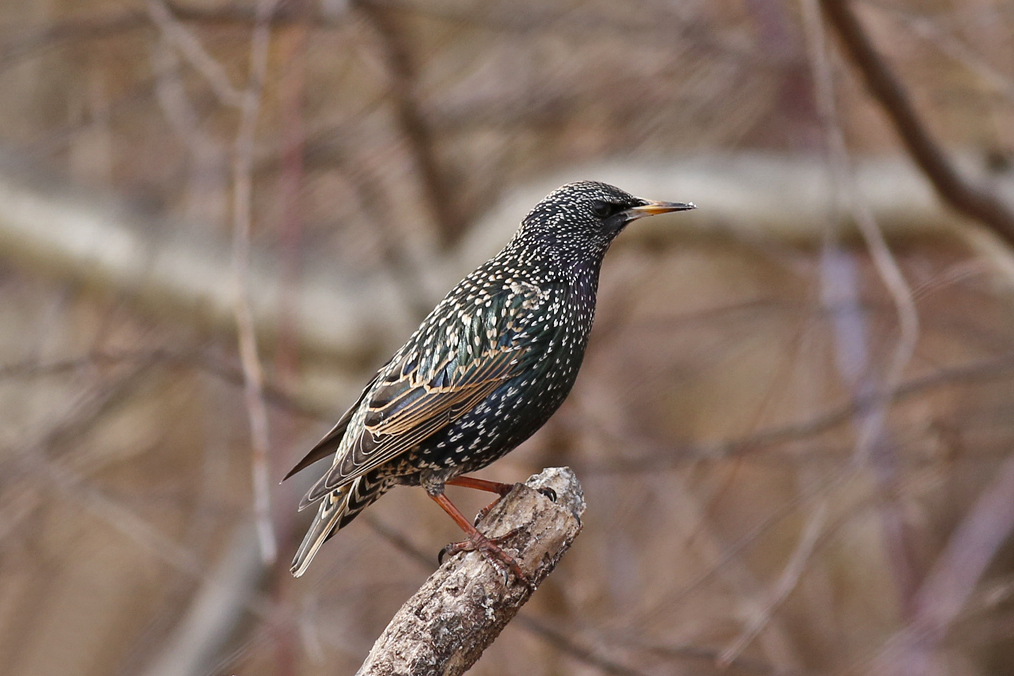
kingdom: Animalia
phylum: Chordata
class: Aves
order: Passeriformes
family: Sturnidae
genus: Sturnus
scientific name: Sturnus vulgaris
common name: Common starling
